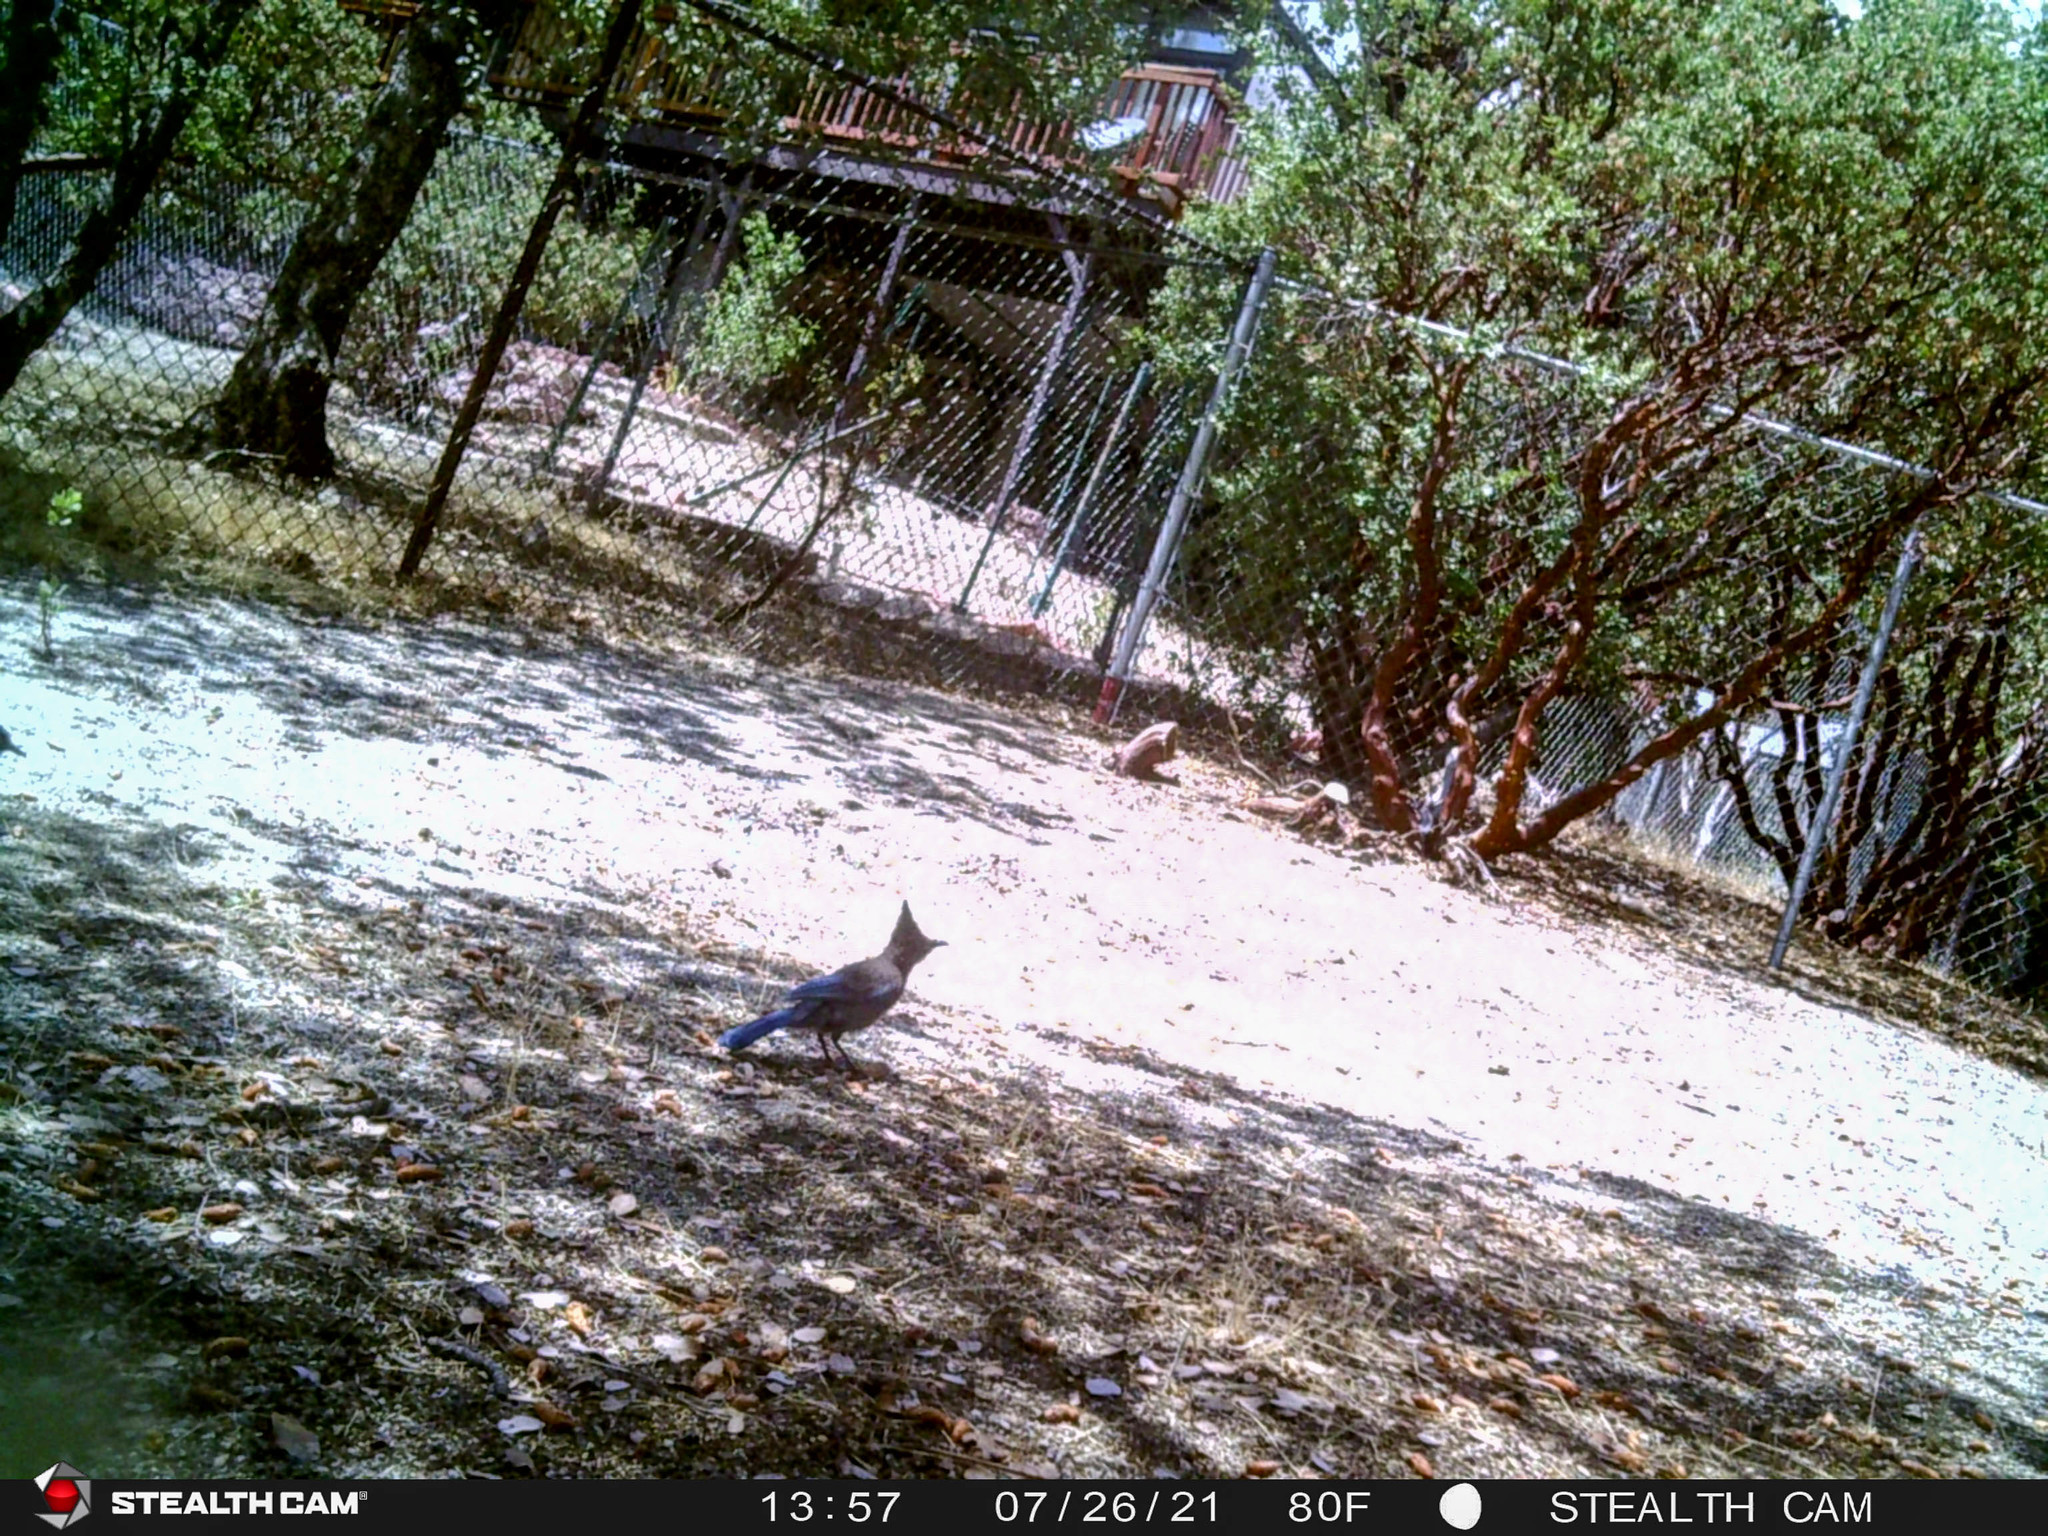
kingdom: Animalia
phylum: Chordata
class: Aves
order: Passeriformes
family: Corvidae
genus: Cyanocitta
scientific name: Cyanocitta stelleri
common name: Steller's jay
